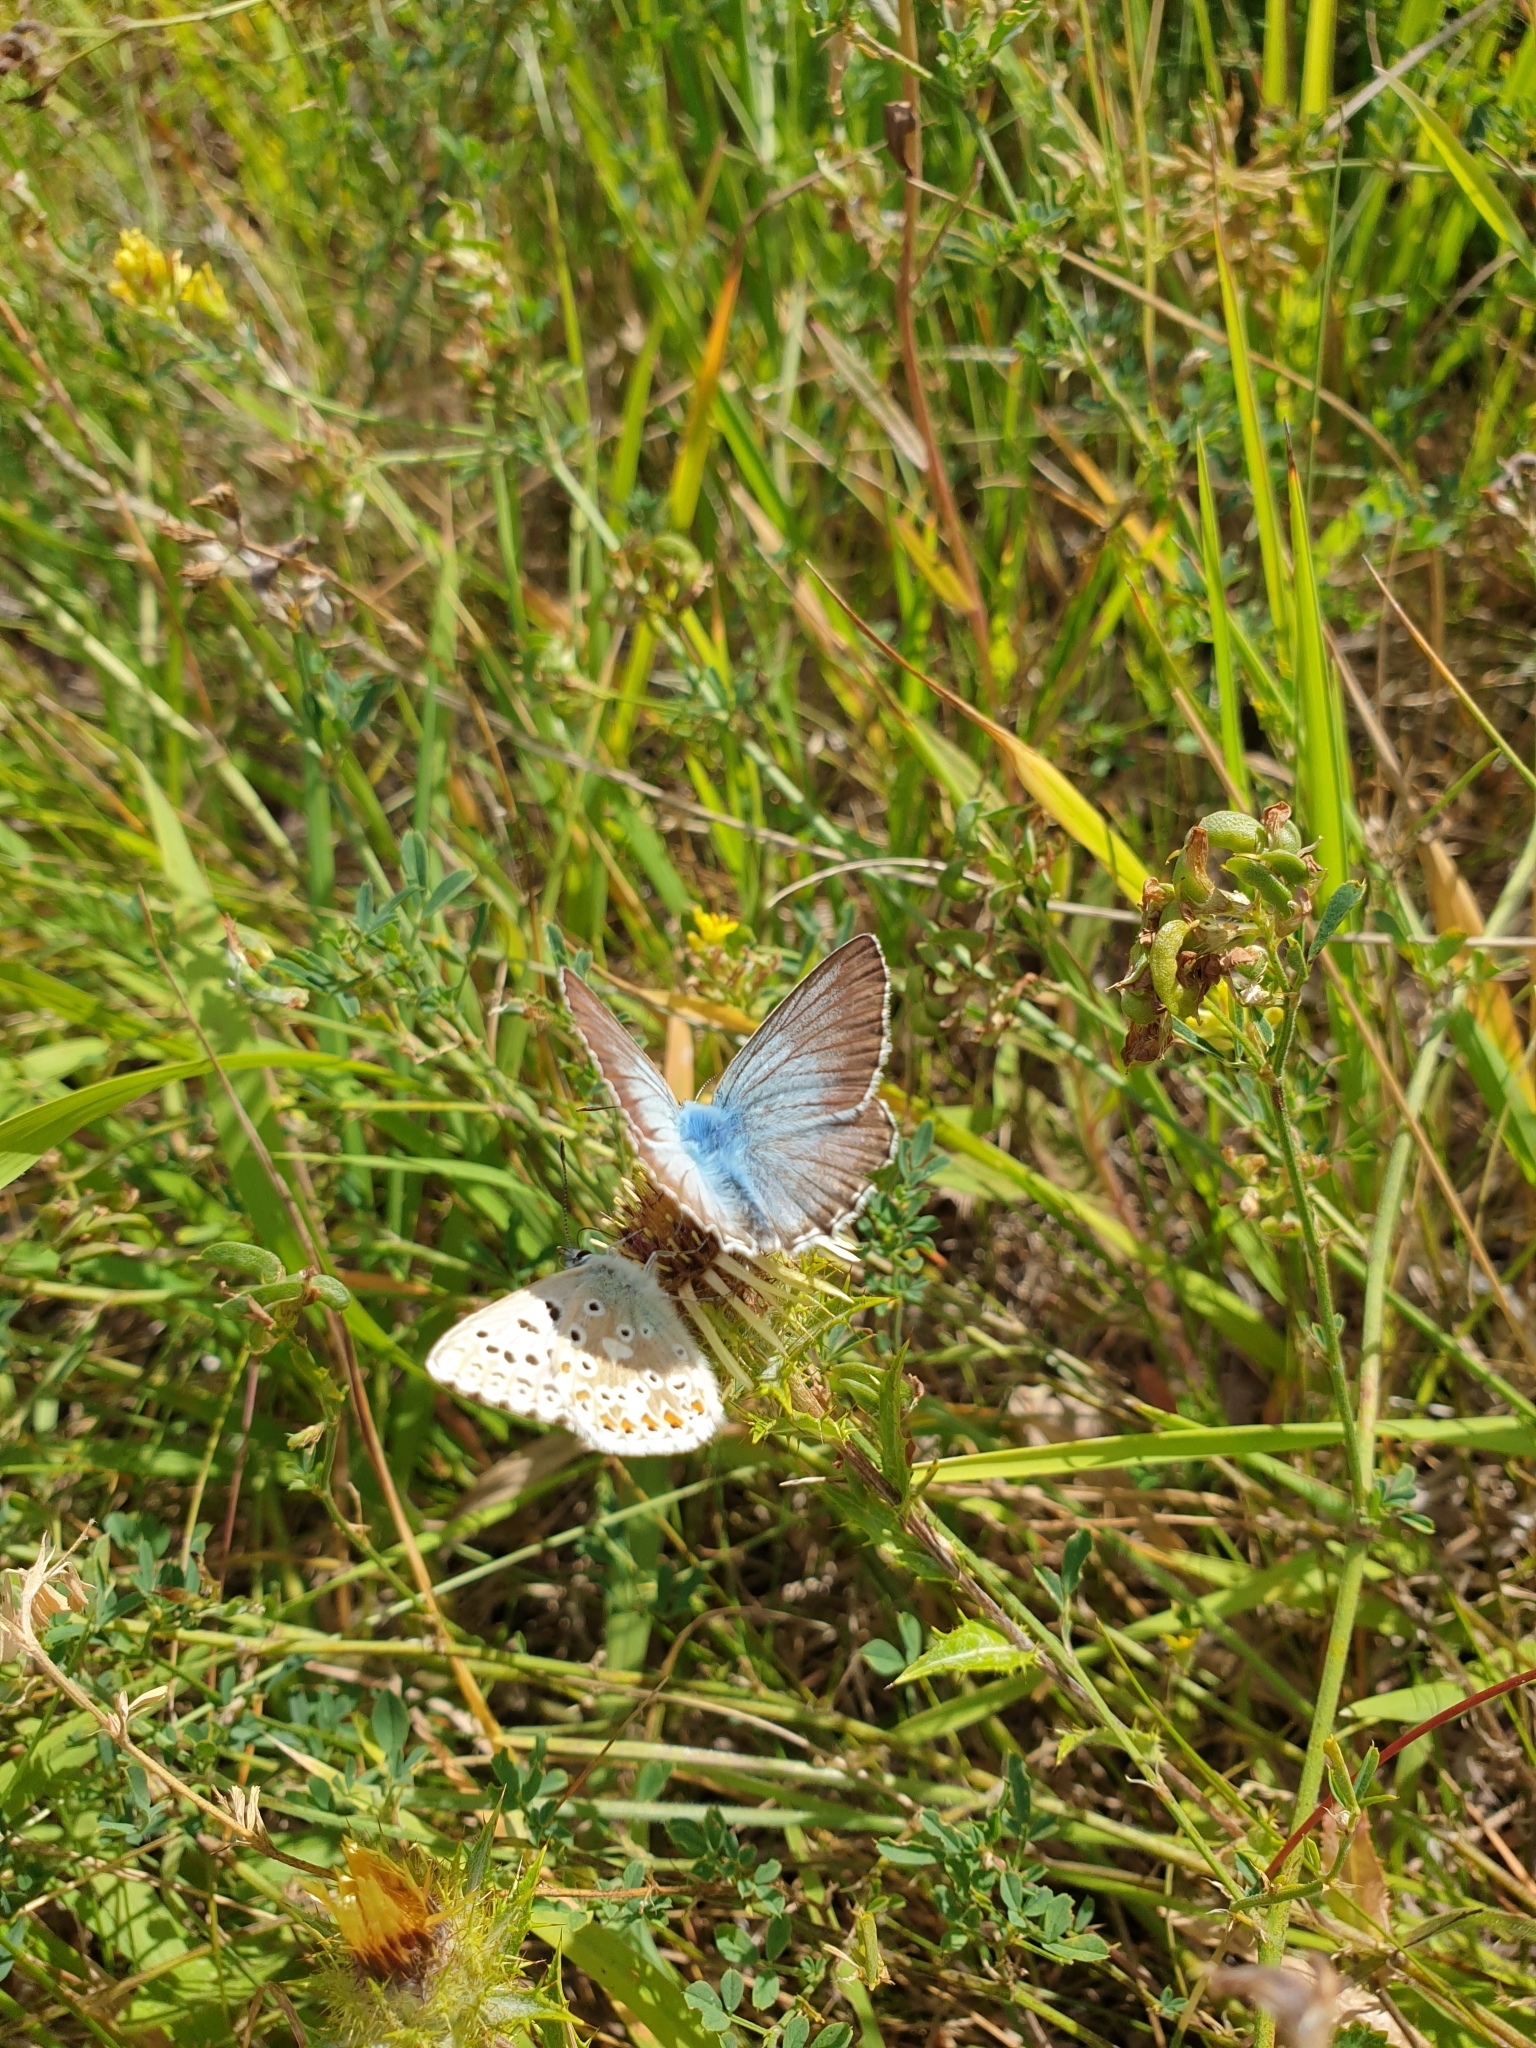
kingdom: Animalia
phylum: Arthropoda
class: Insecta
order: Lepidoptera
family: Lycaenidae
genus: Lysandra
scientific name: Lysandra coridon
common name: Chalkhill blue
